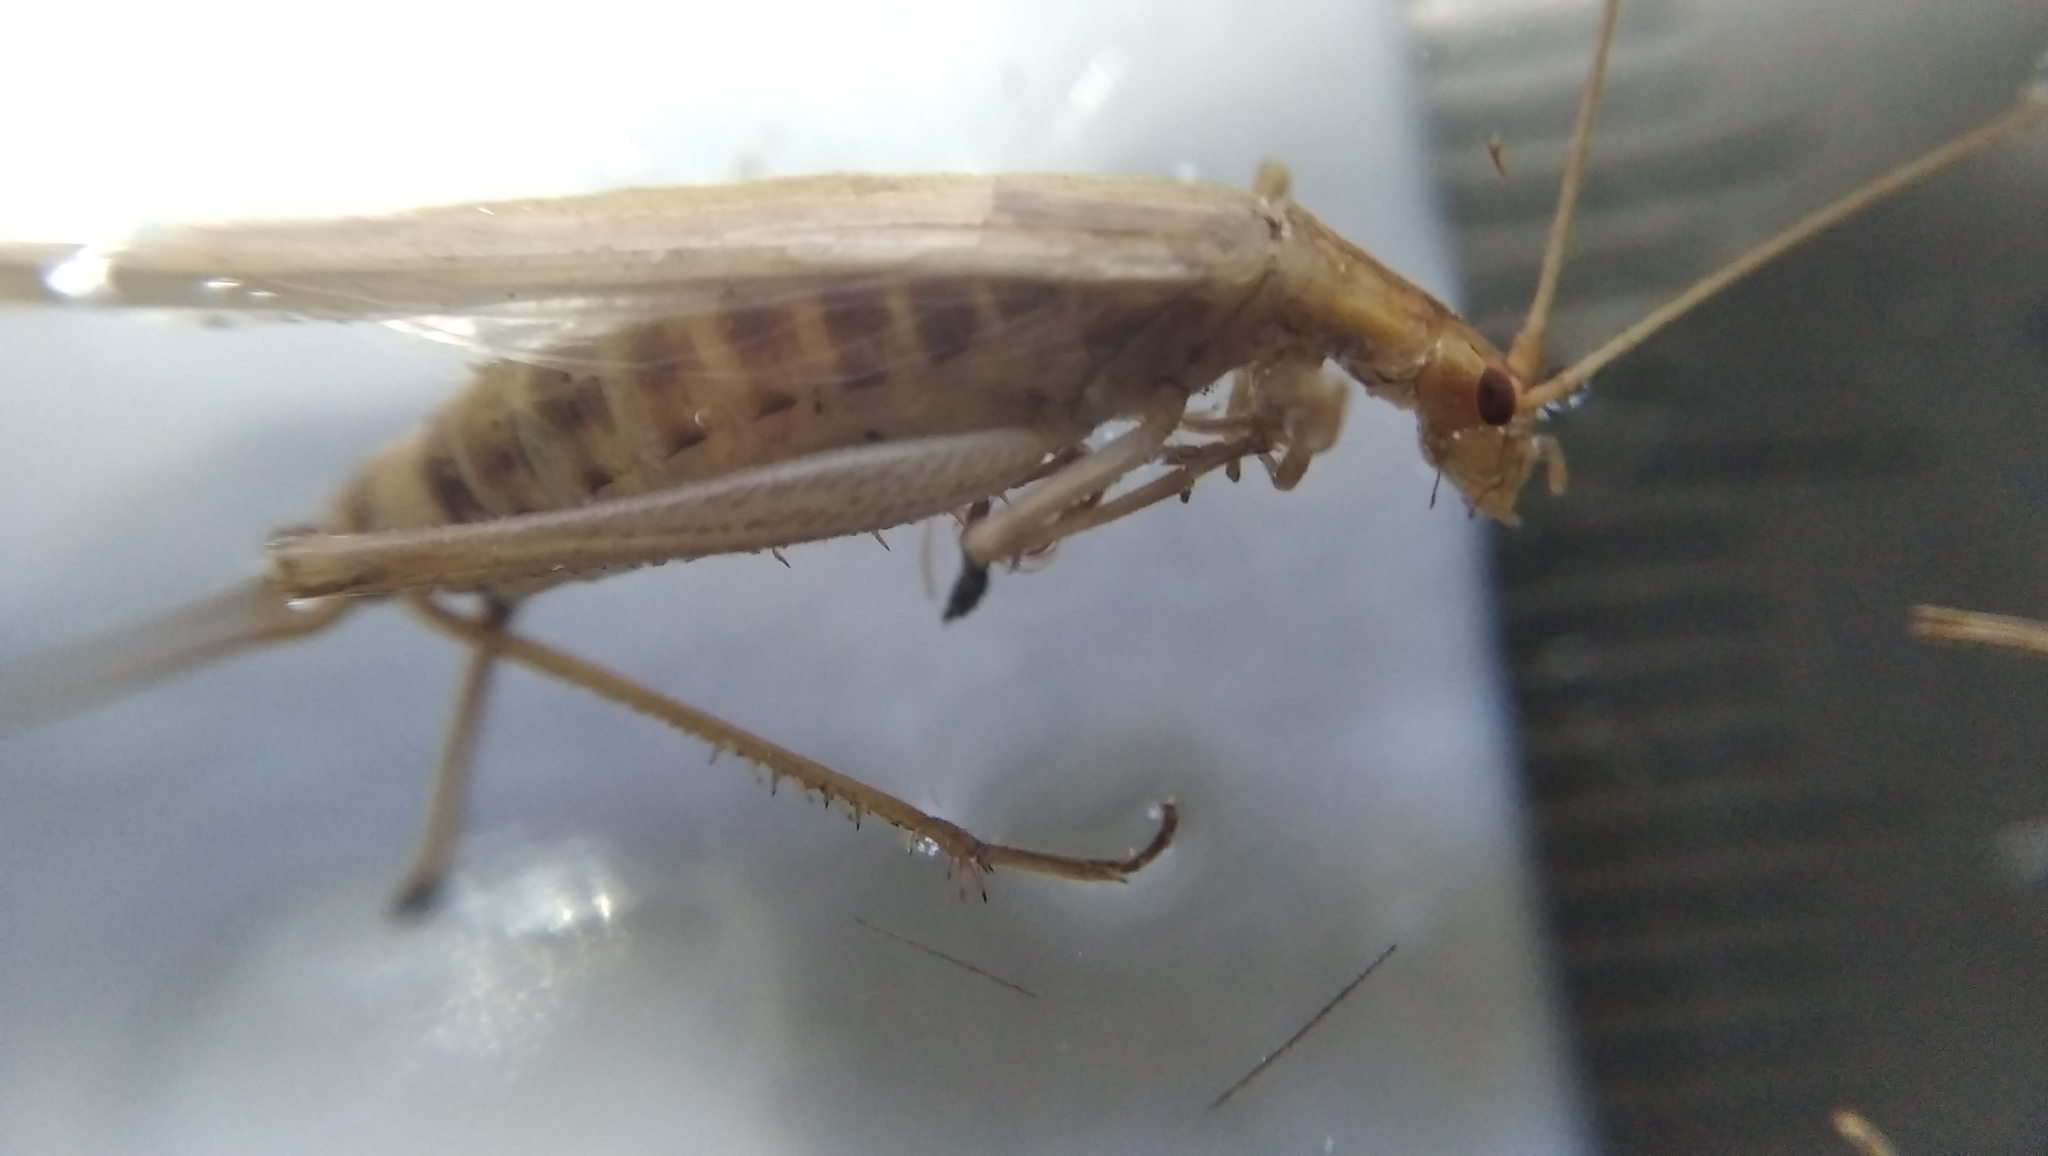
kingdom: Animalia
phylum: Arthropoda
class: Insecta
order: Orthoptera
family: Gryllidae
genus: Oecanthus
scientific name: Oecanthus pellucens
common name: Tree-cricket
